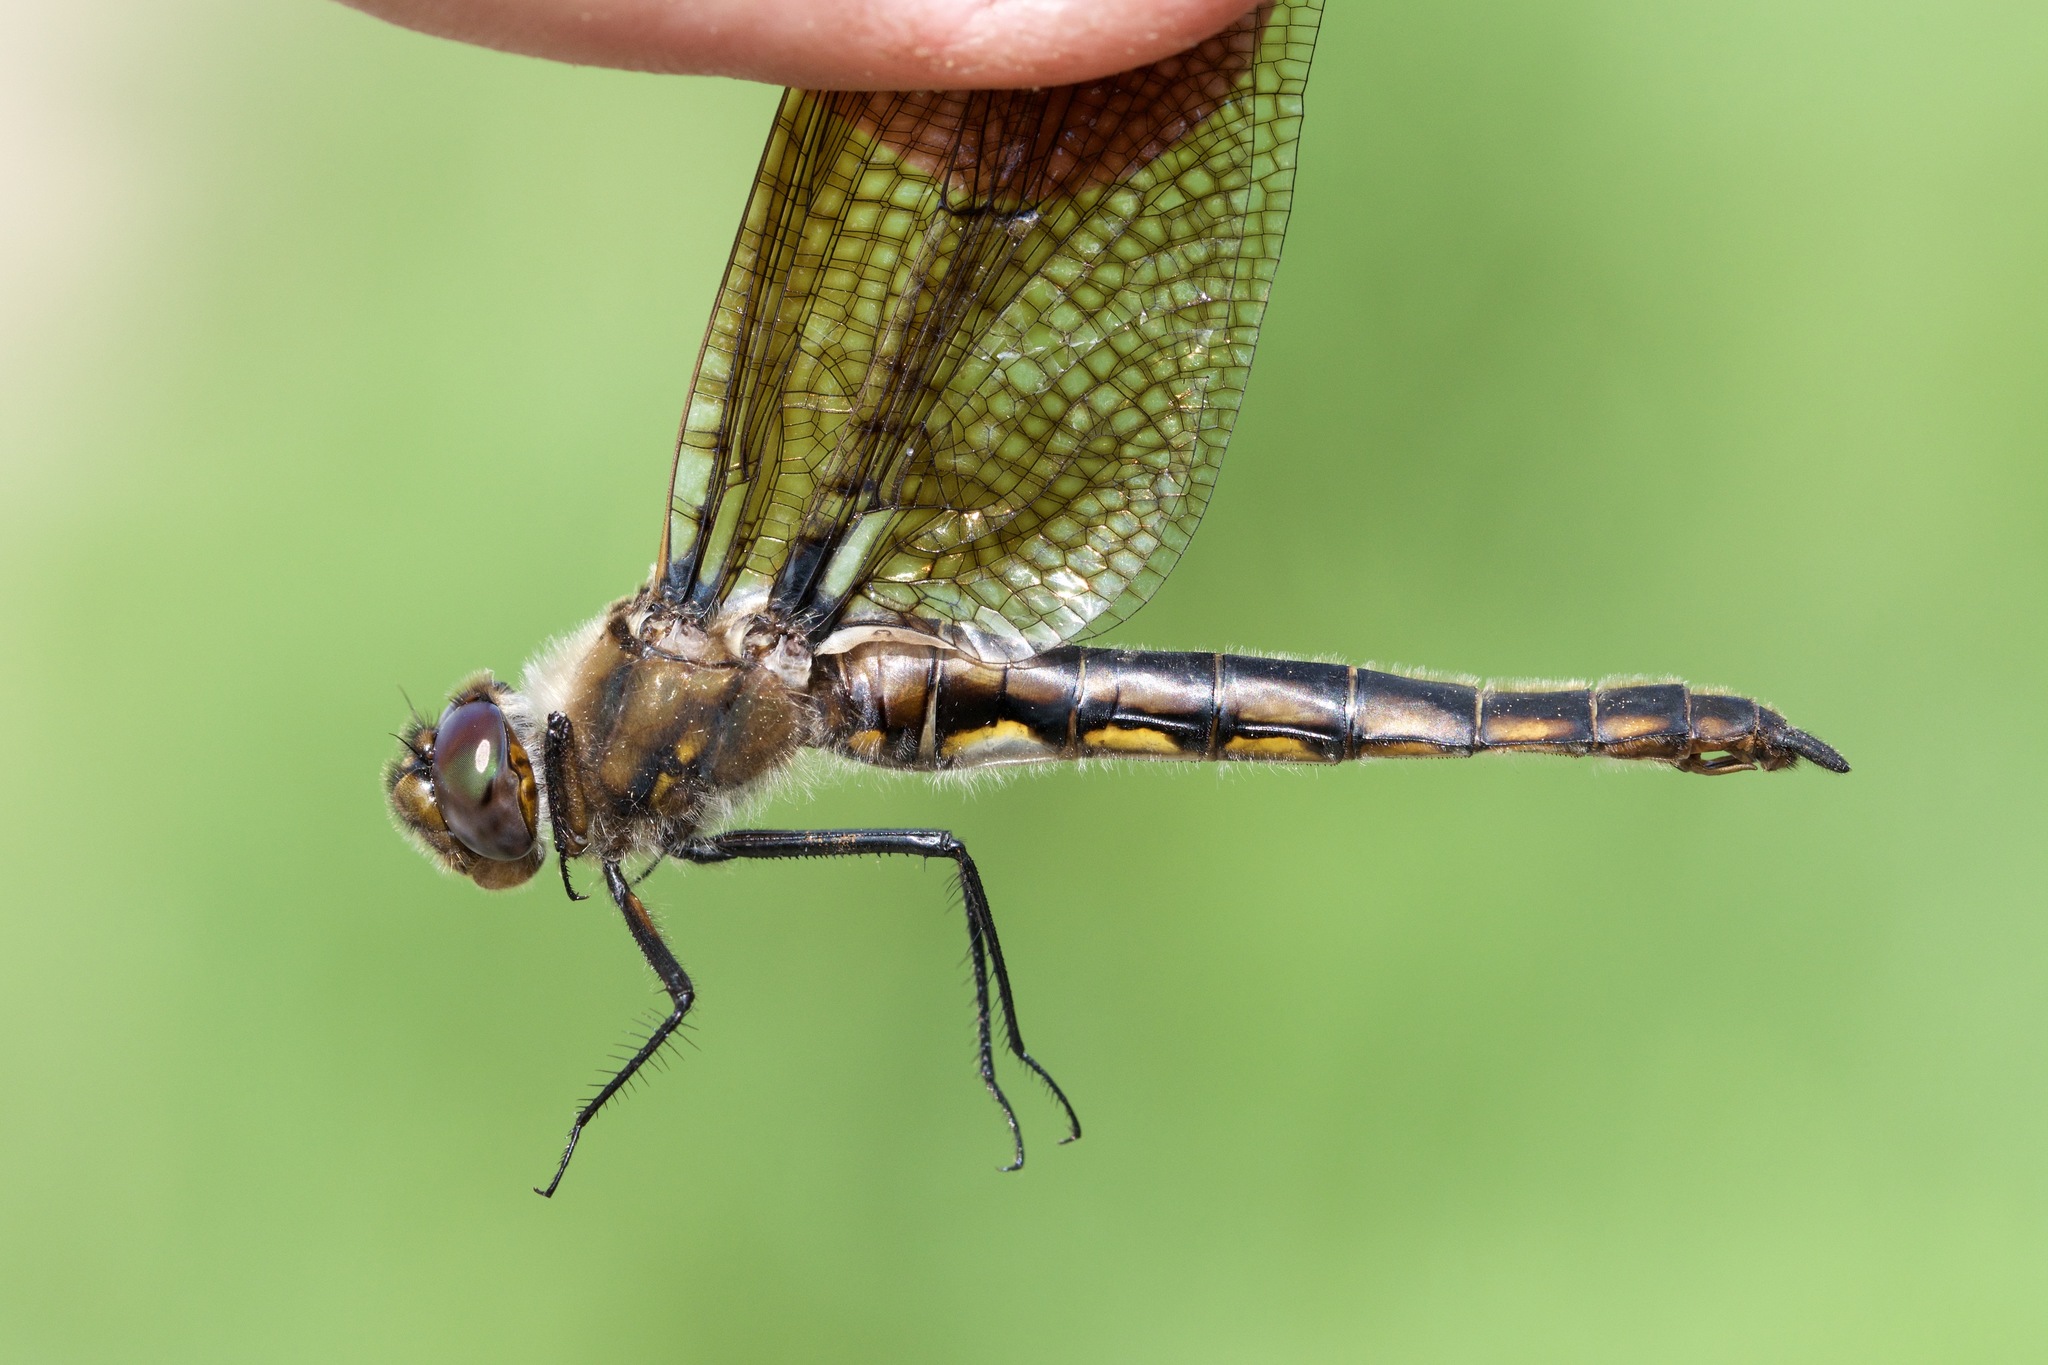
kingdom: Animalia
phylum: Arthropoda
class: Insecta
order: Odonata
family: Corduliidae
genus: Epitheca
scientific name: Epitheca canis
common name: Beaverpond baskettail
